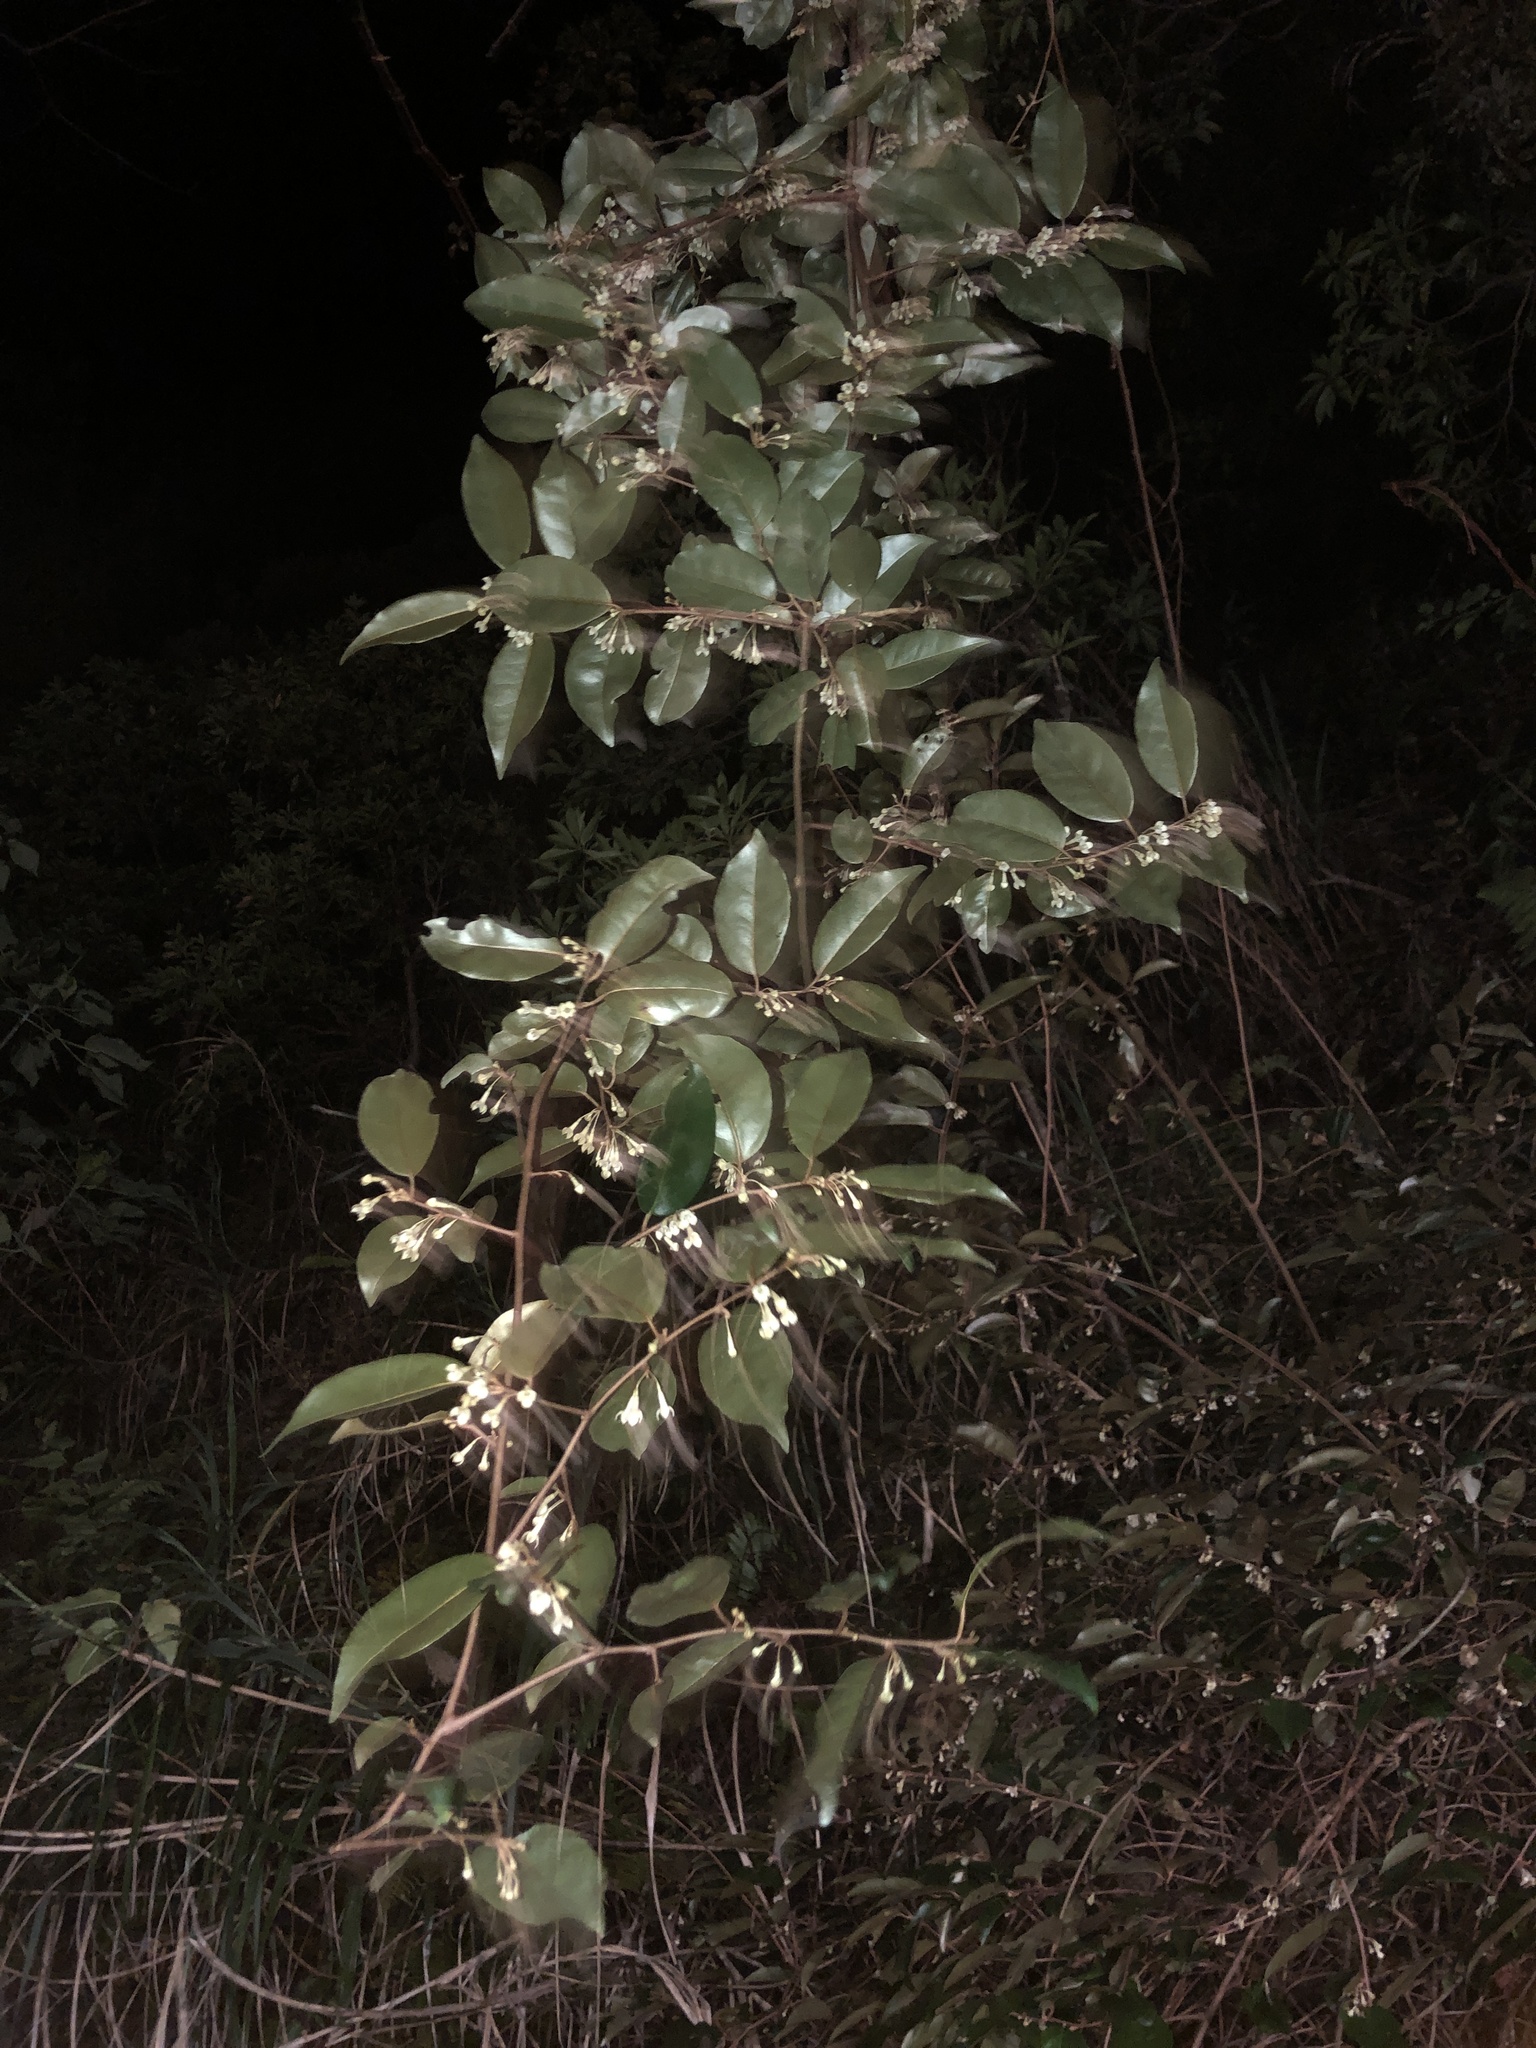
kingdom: Plantae
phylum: Tracheophyta
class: Magnoliopsida
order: Rosales
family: Elaeagnaceae
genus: Elaeagnus
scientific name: Elaeagnus glabra
